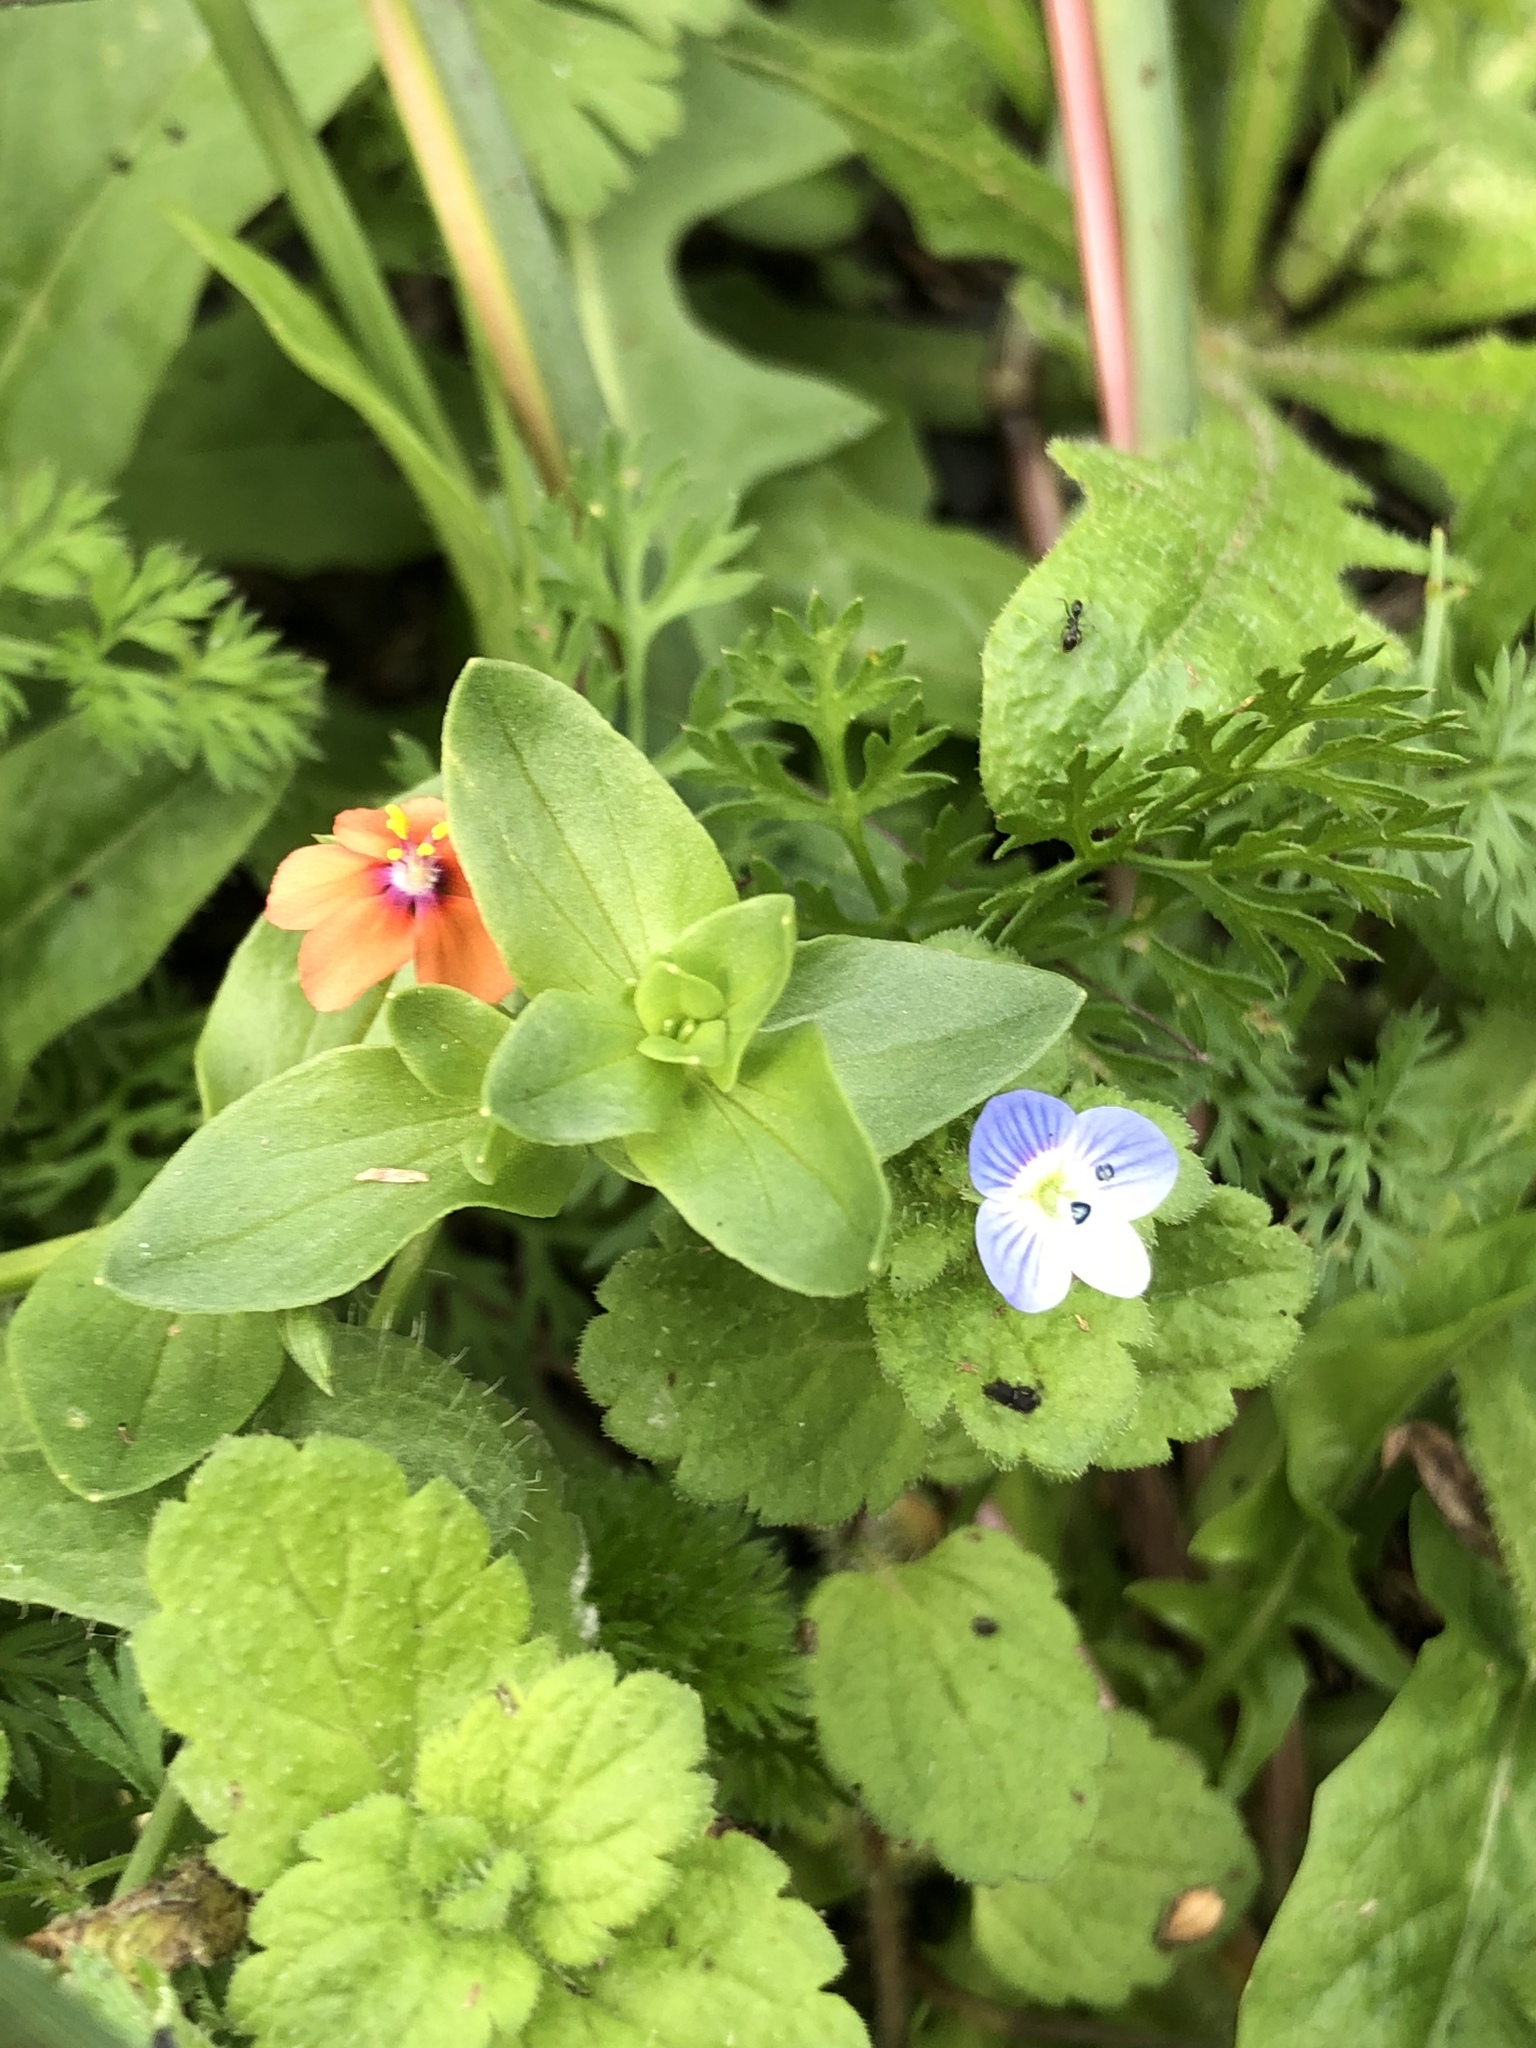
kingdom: Plantae
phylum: Tracheophyta
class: Magnoliopsida
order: Ericales
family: Primulaceae
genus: Lysimachia
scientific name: Lysimachia arvensis
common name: Scarlet pimpernel
